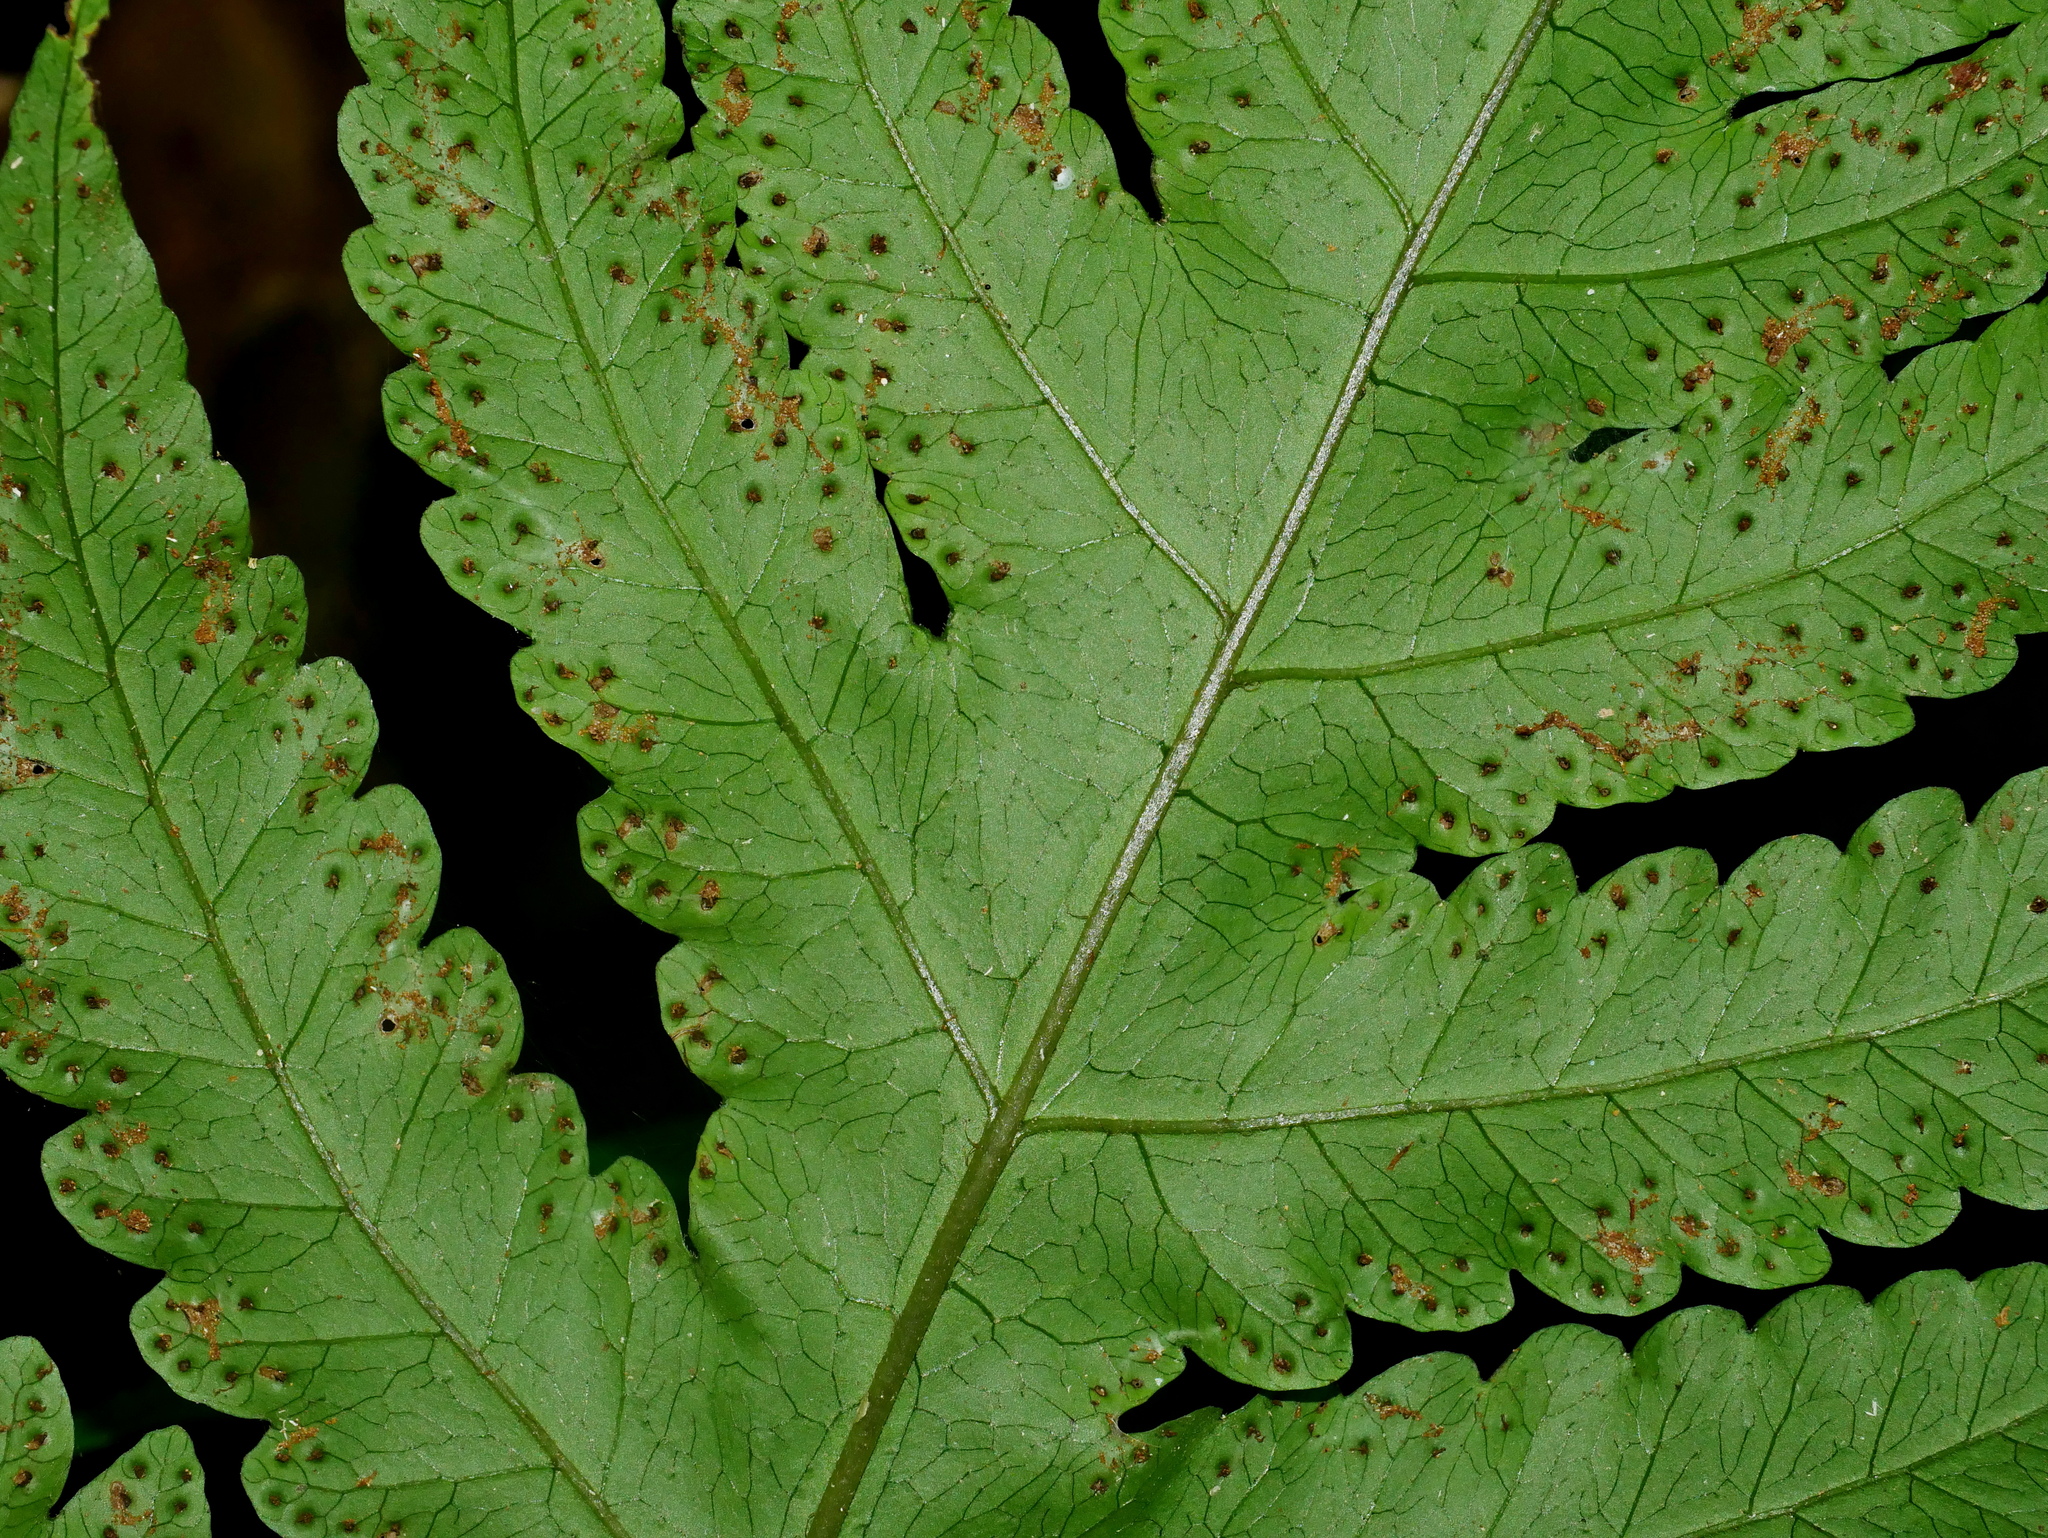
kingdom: Plantae
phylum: Tracheophyta
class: Polypodiopsida
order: Polypodiales
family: Tectariaceae
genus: Tectaria
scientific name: Tectaria multicaudata
